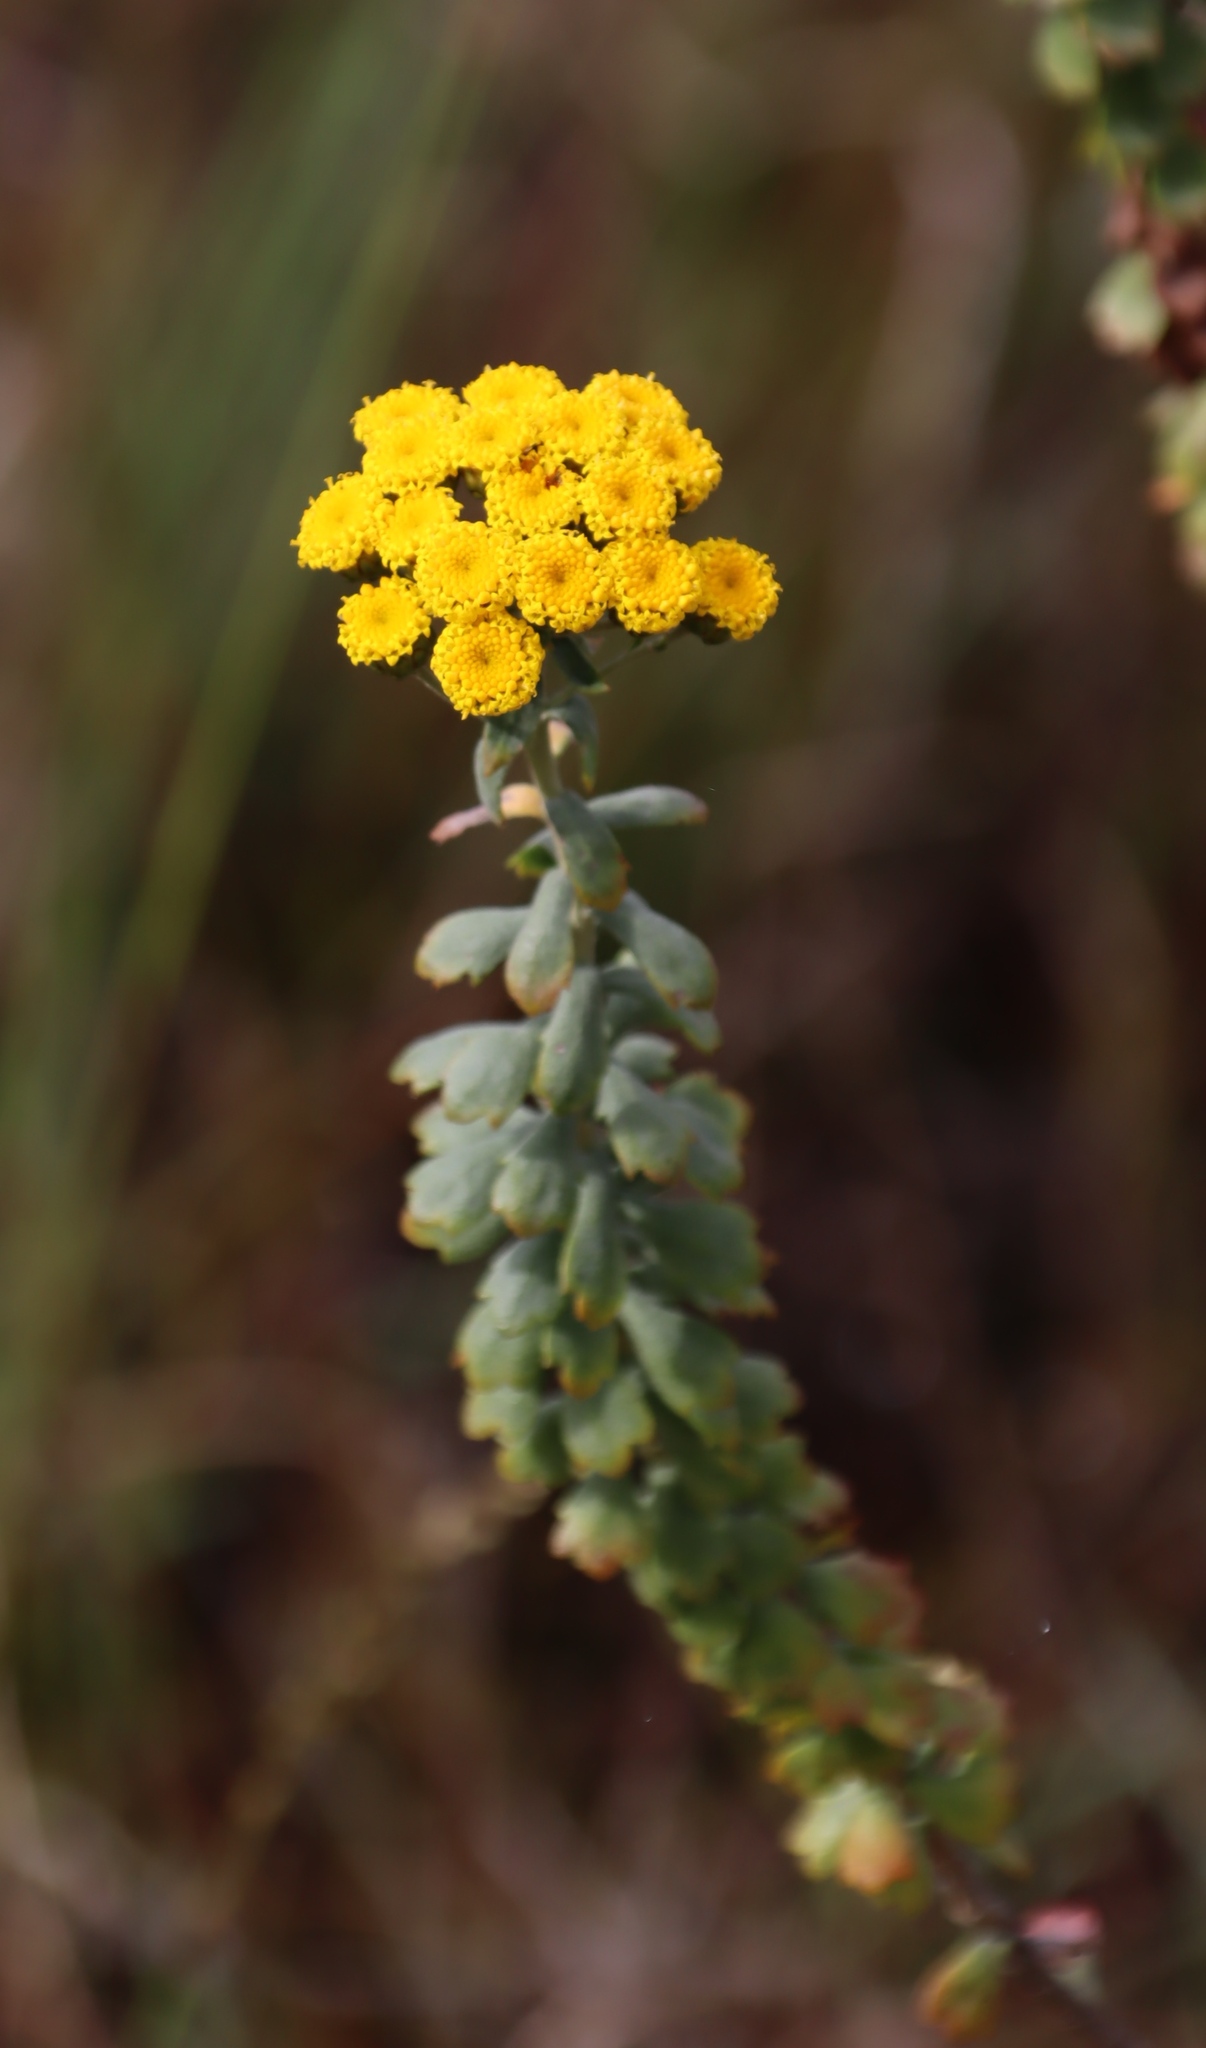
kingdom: Plantae
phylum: Tracheophyta
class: Magnoliopsida
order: Asterales
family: Asteraceae
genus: Athanasia
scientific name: Athanasia trifurcata
